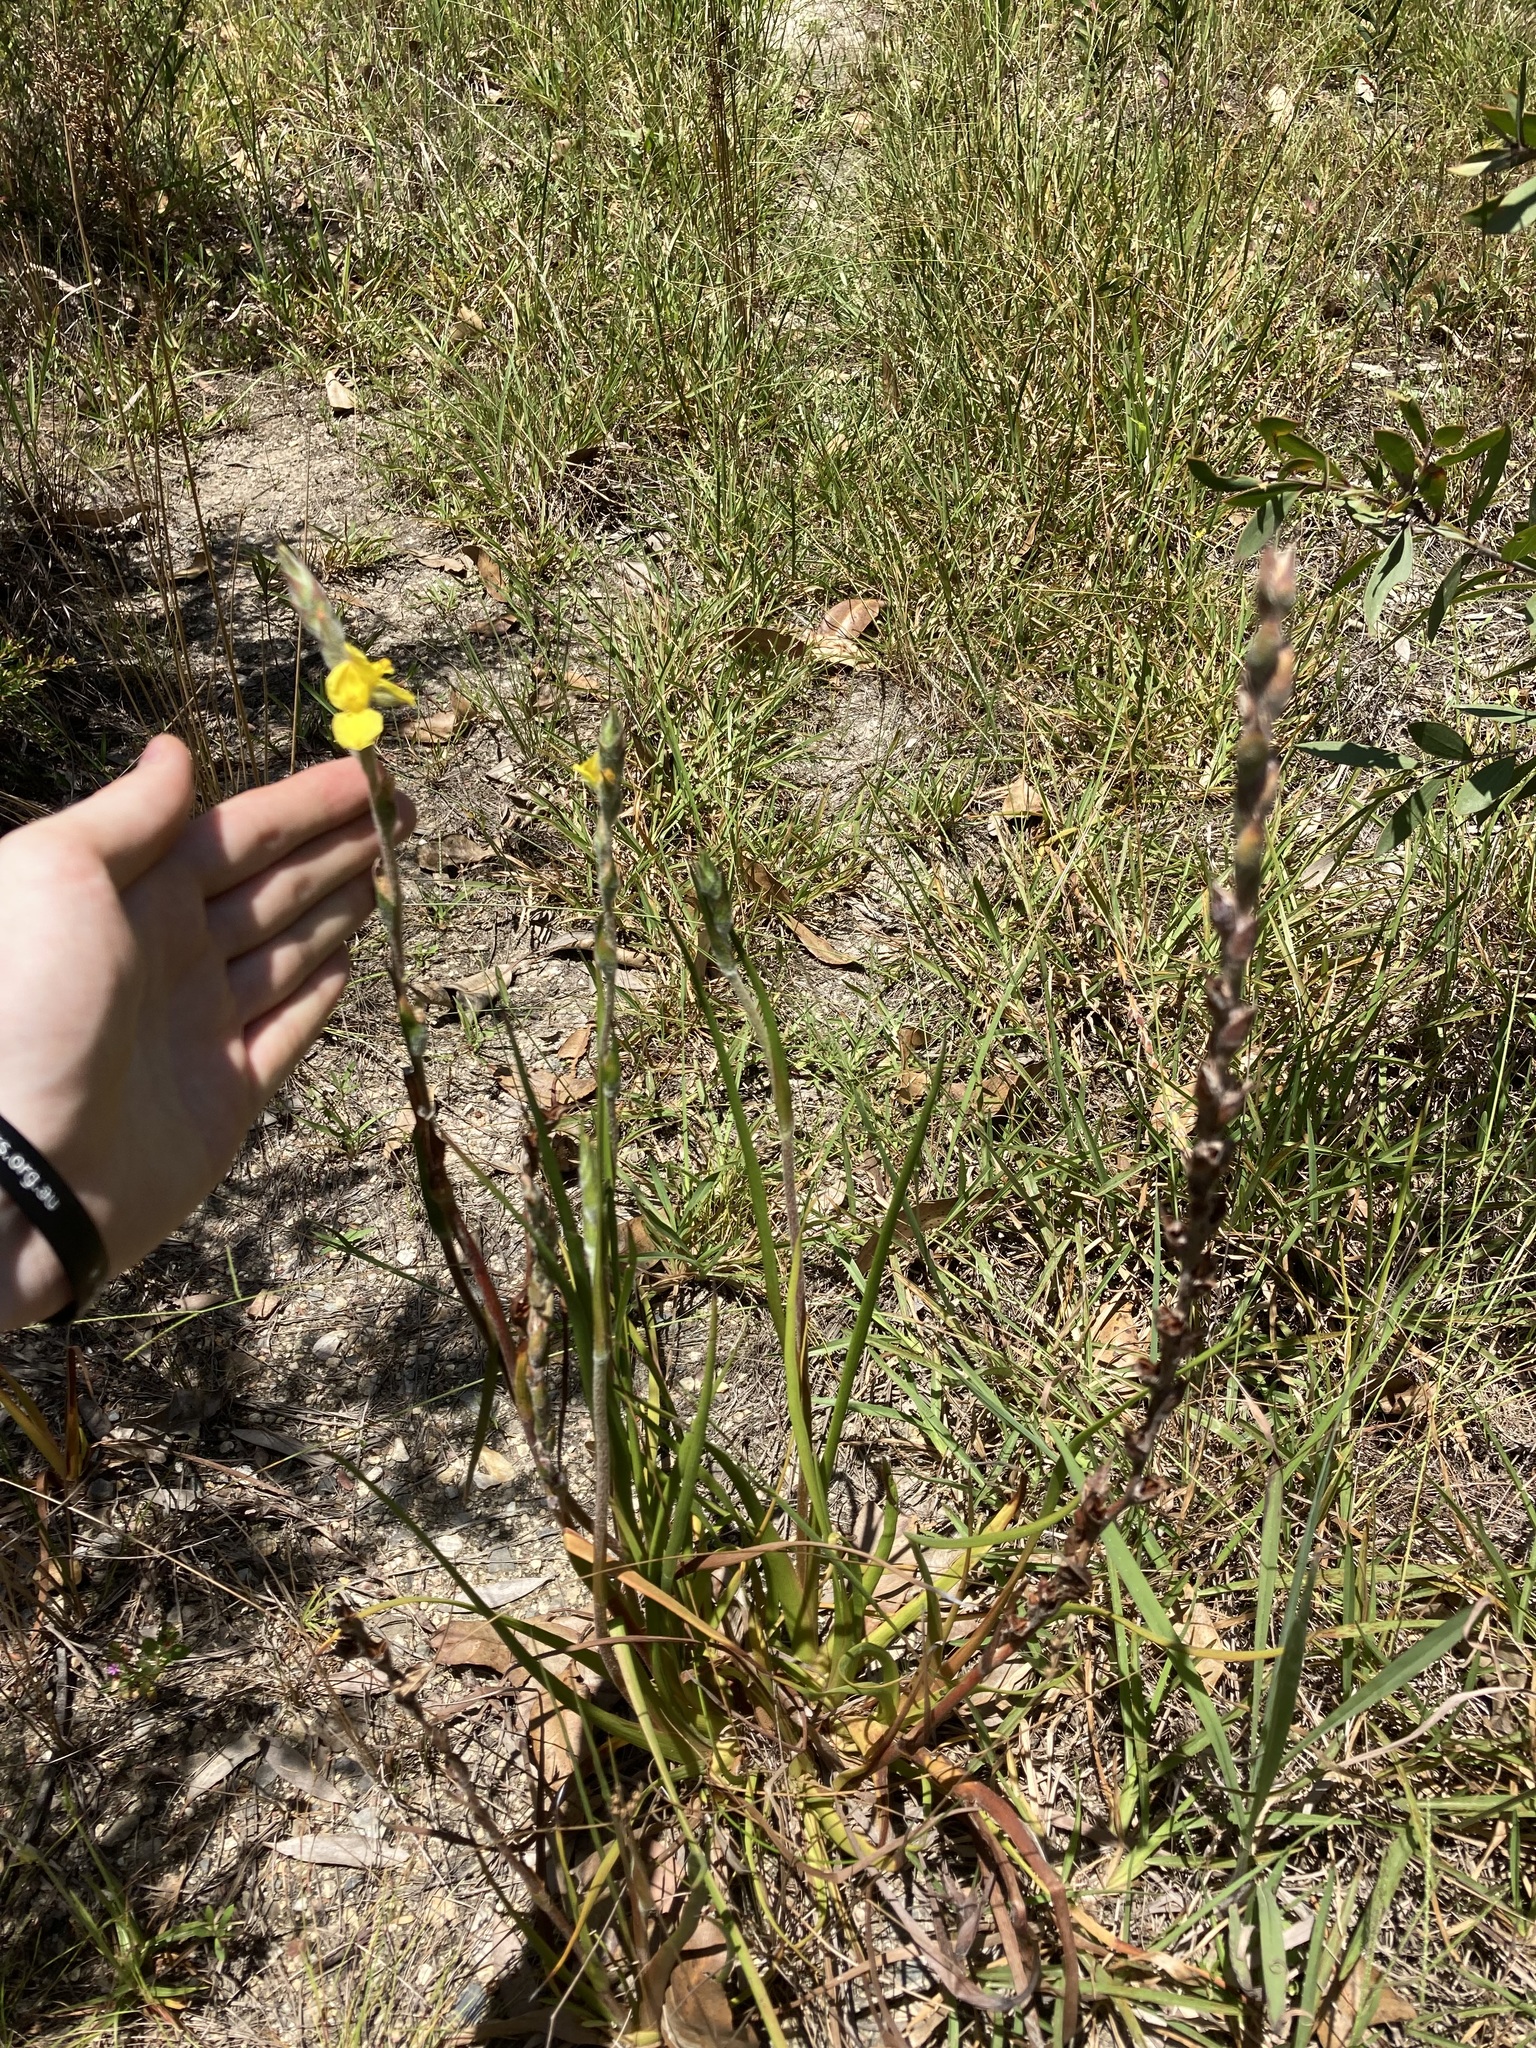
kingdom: Plantae
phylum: Tracheophyta
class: Liliopsida
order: Commelinales
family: Philydraceae
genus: Philydrum
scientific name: Philydrum lanuginosum
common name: Woolly frog's mouth
